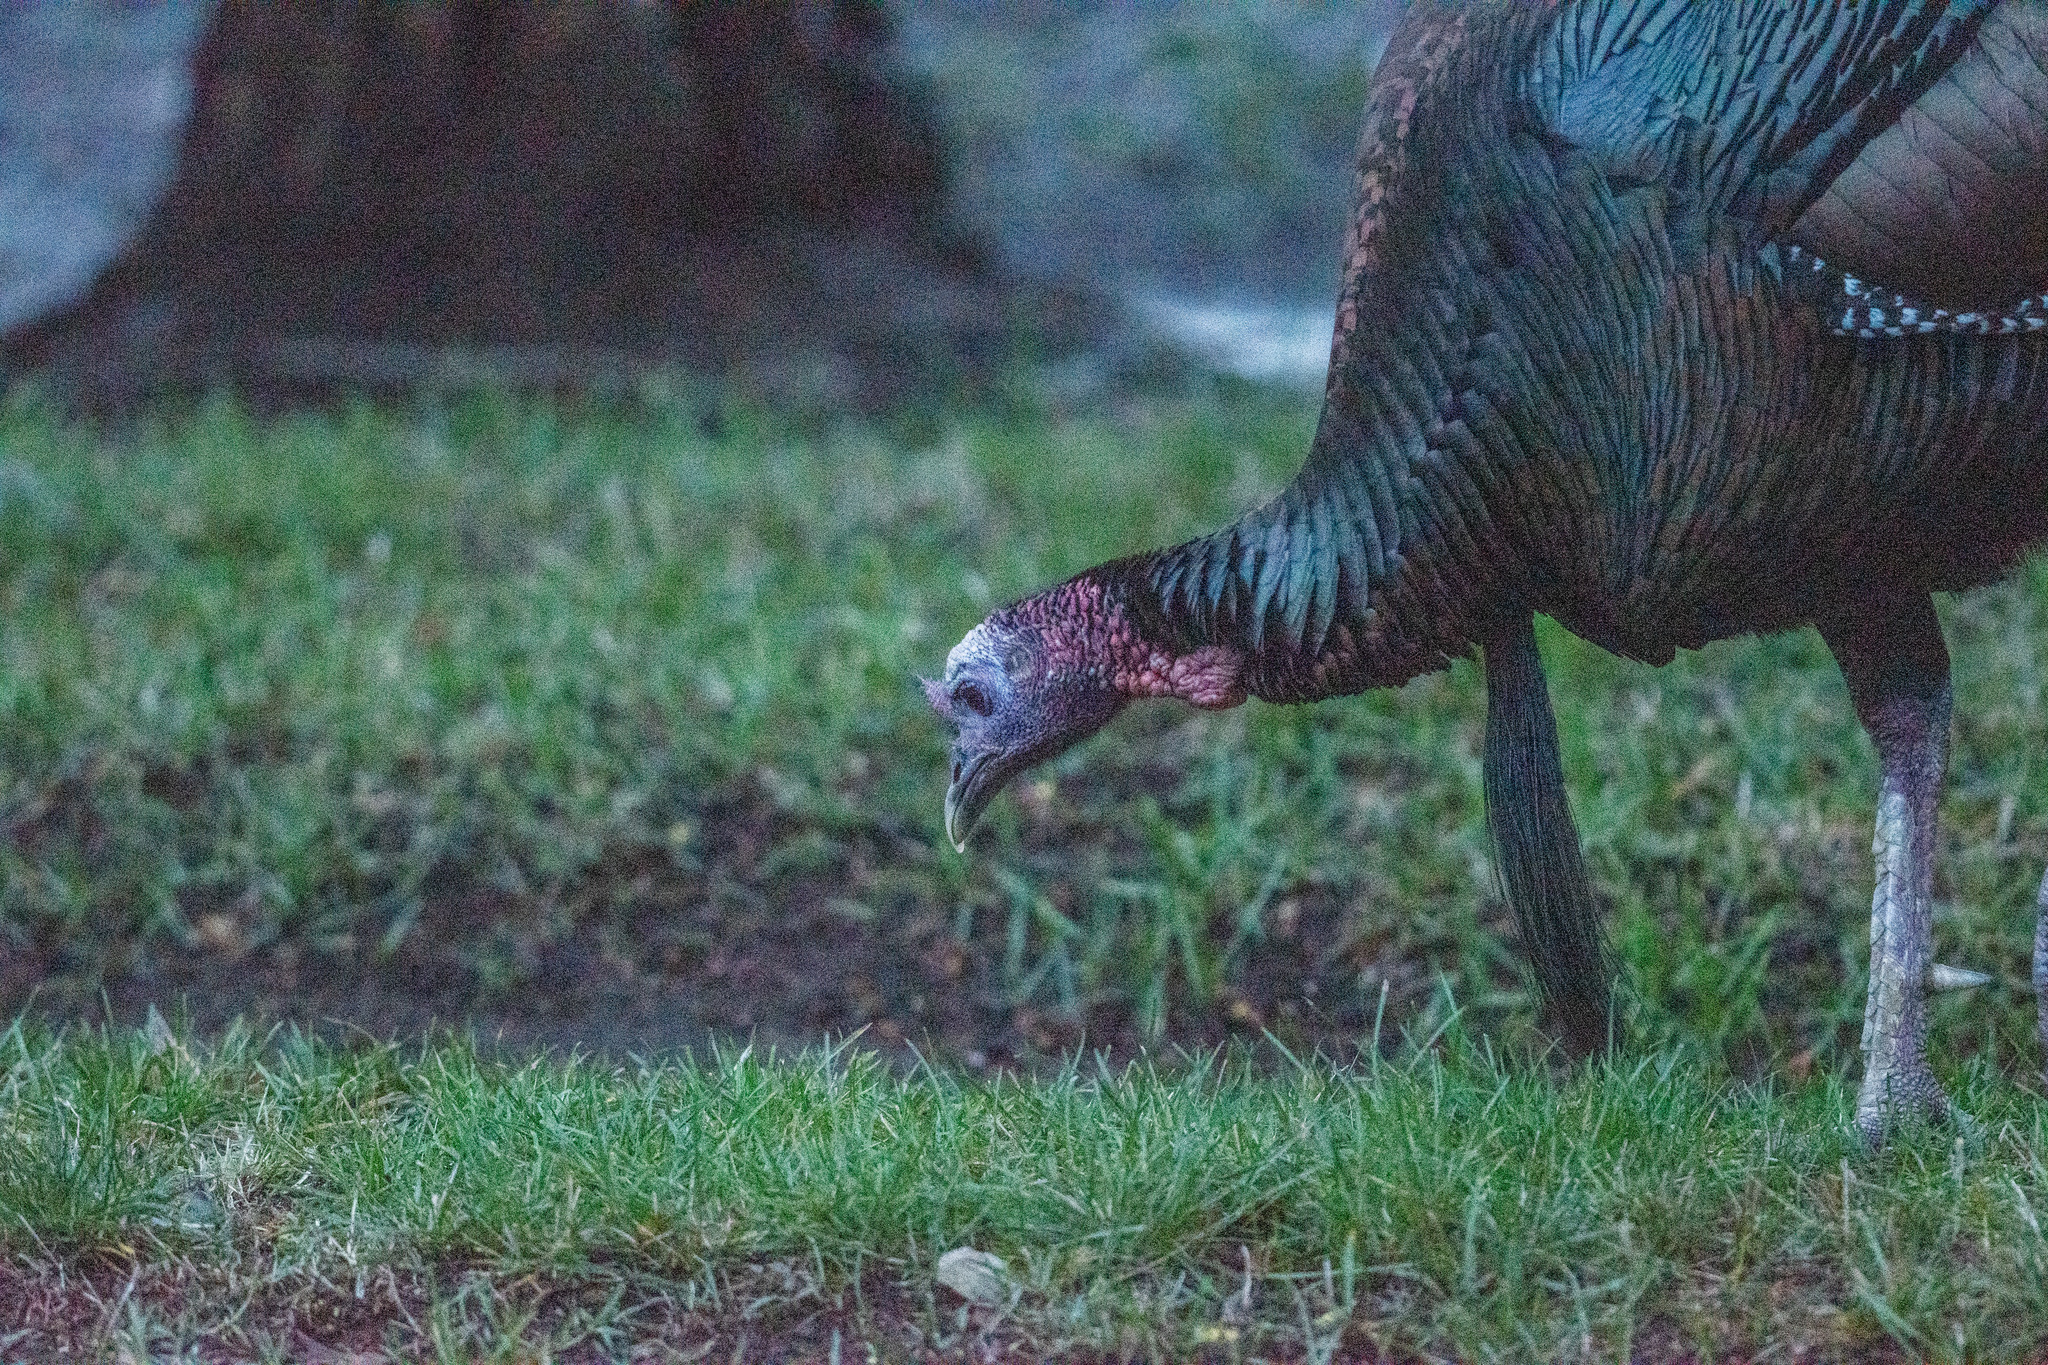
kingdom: Animalia
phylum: Chordata
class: Aves
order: Galliformes
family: Phasianidae
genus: Meleagris
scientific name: Meleagris gallopavo
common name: Wild turkey
